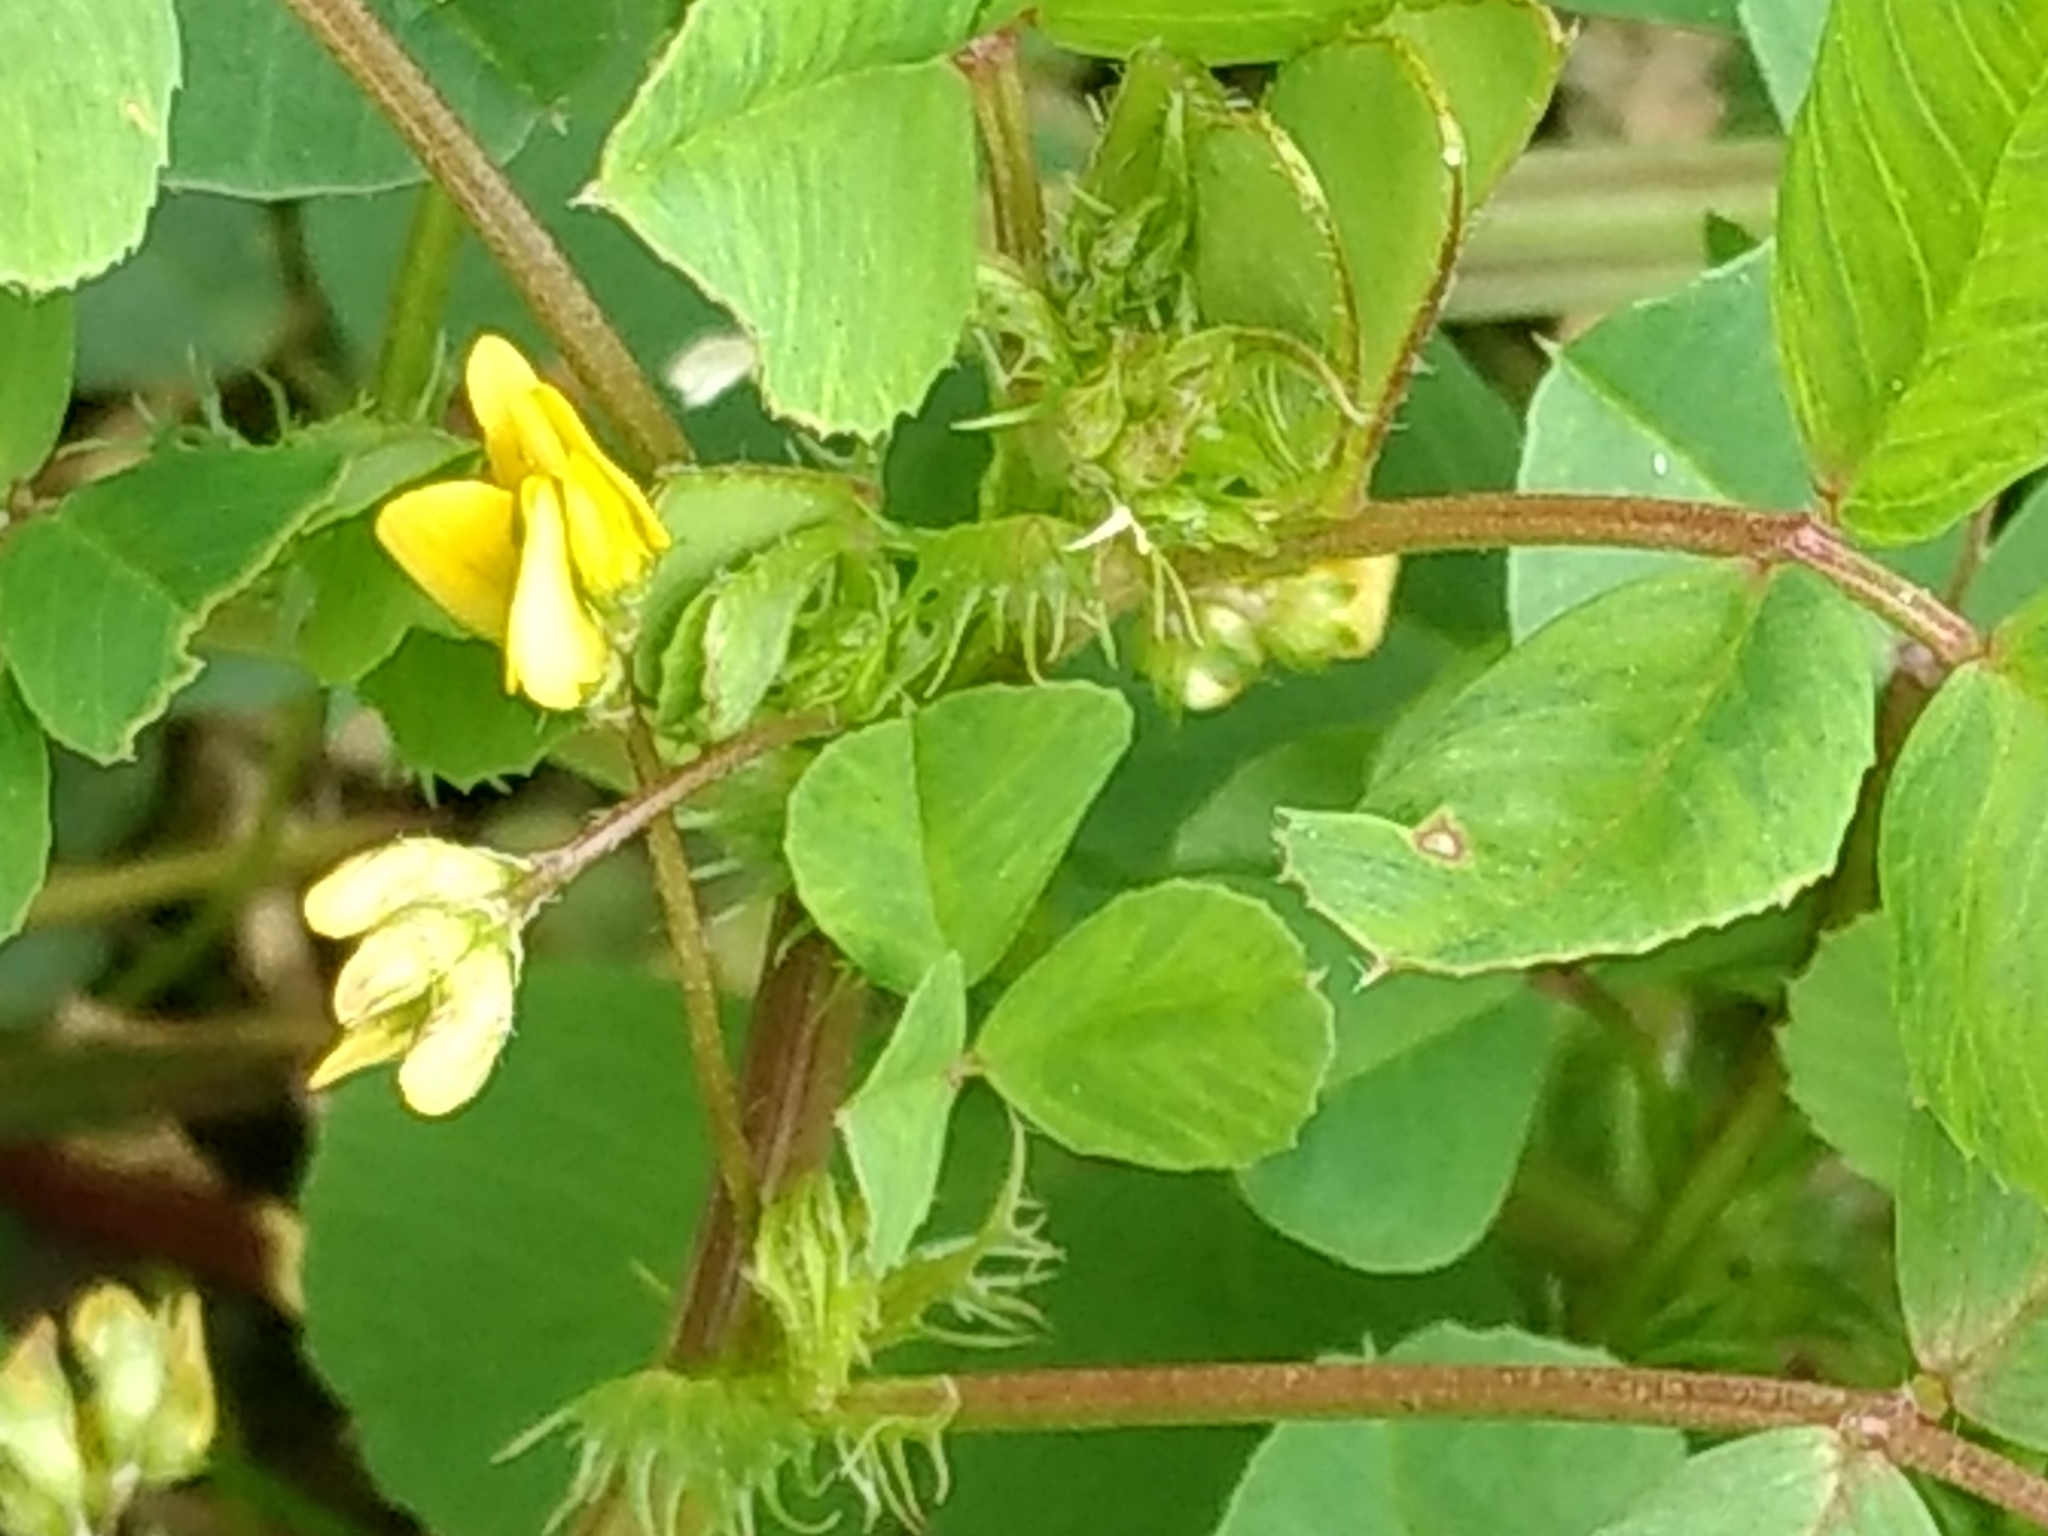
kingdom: Plantae
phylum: Tracheophyta
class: Magnoliopsida
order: Fabales
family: Fabaceae
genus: Medicago
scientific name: Medicago polymorpha
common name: Burclover
